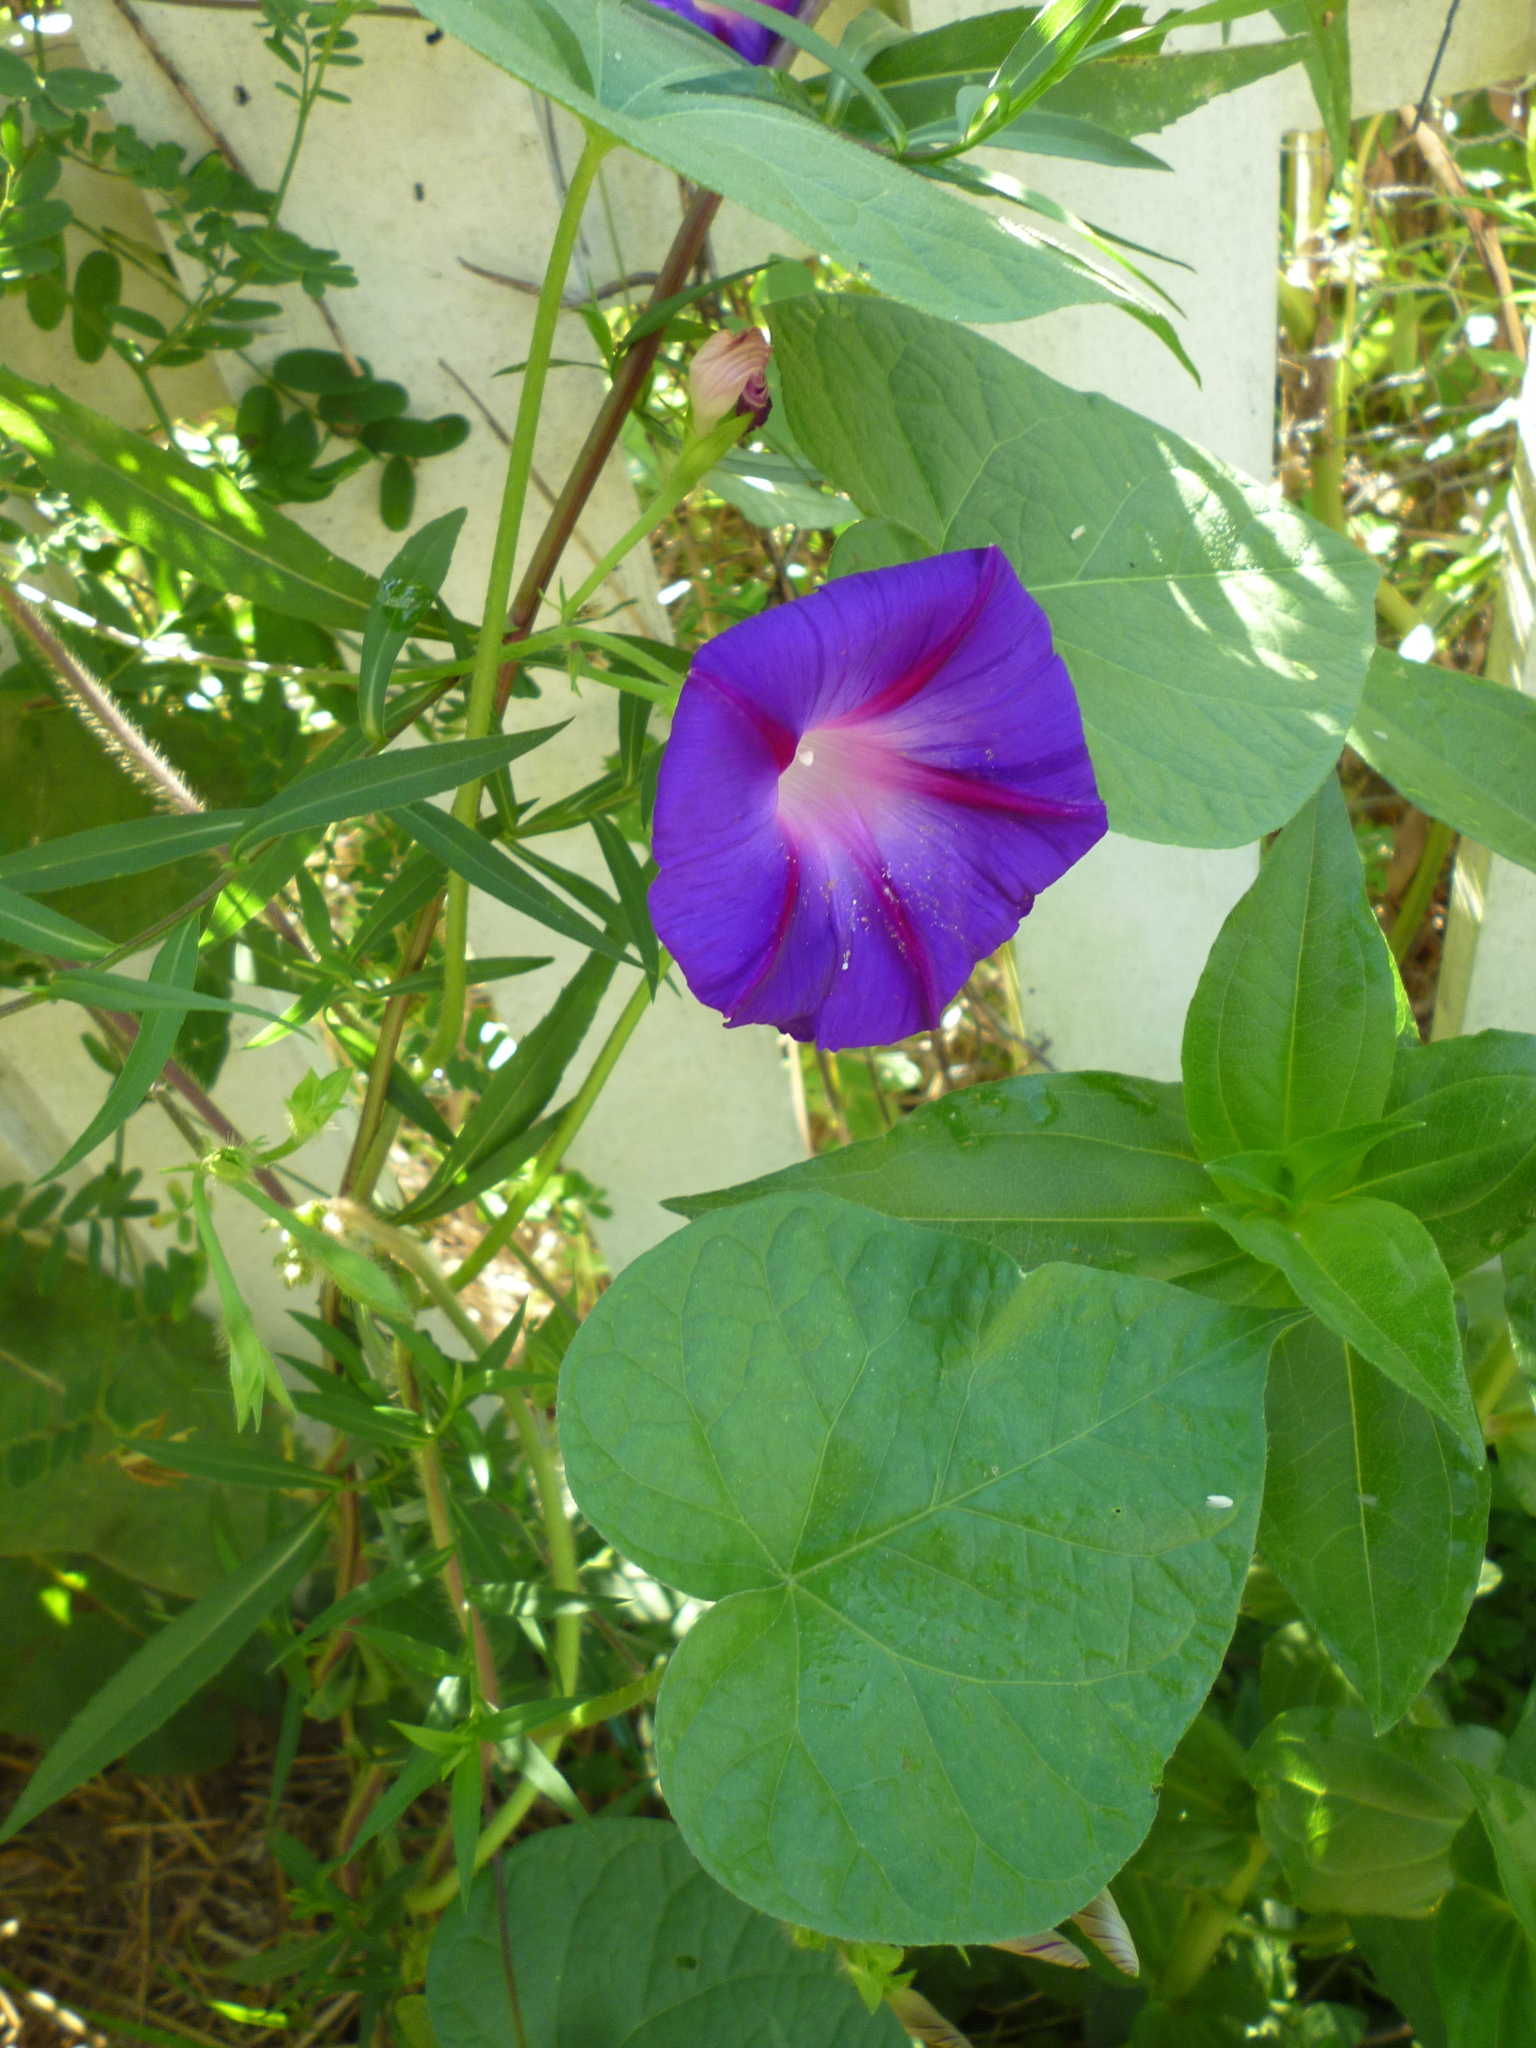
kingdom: Plantae
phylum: Tracheophyta
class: Magnoliopsida
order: Solanales
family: Convolvulaceae
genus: Ipomoea
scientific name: Ipomoea purpurea
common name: Common morning-glory
